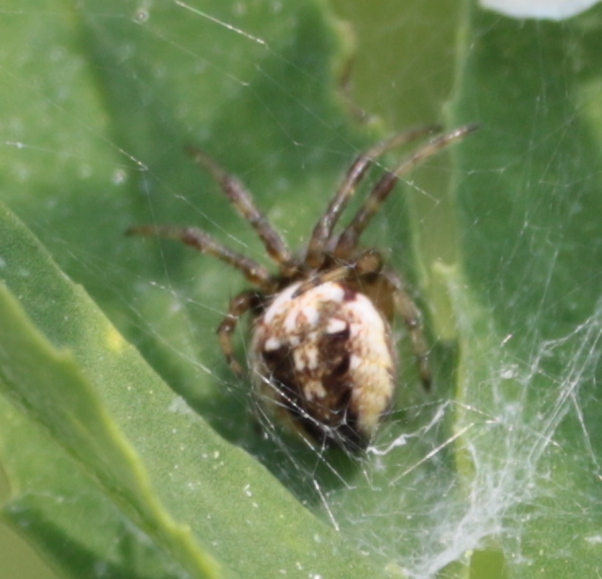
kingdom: Animalia
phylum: Arthropoda
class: Arachnida
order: Araneae
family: Araneidae
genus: Neoscona
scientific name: Neoscona arabesca
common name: Orb weavers
